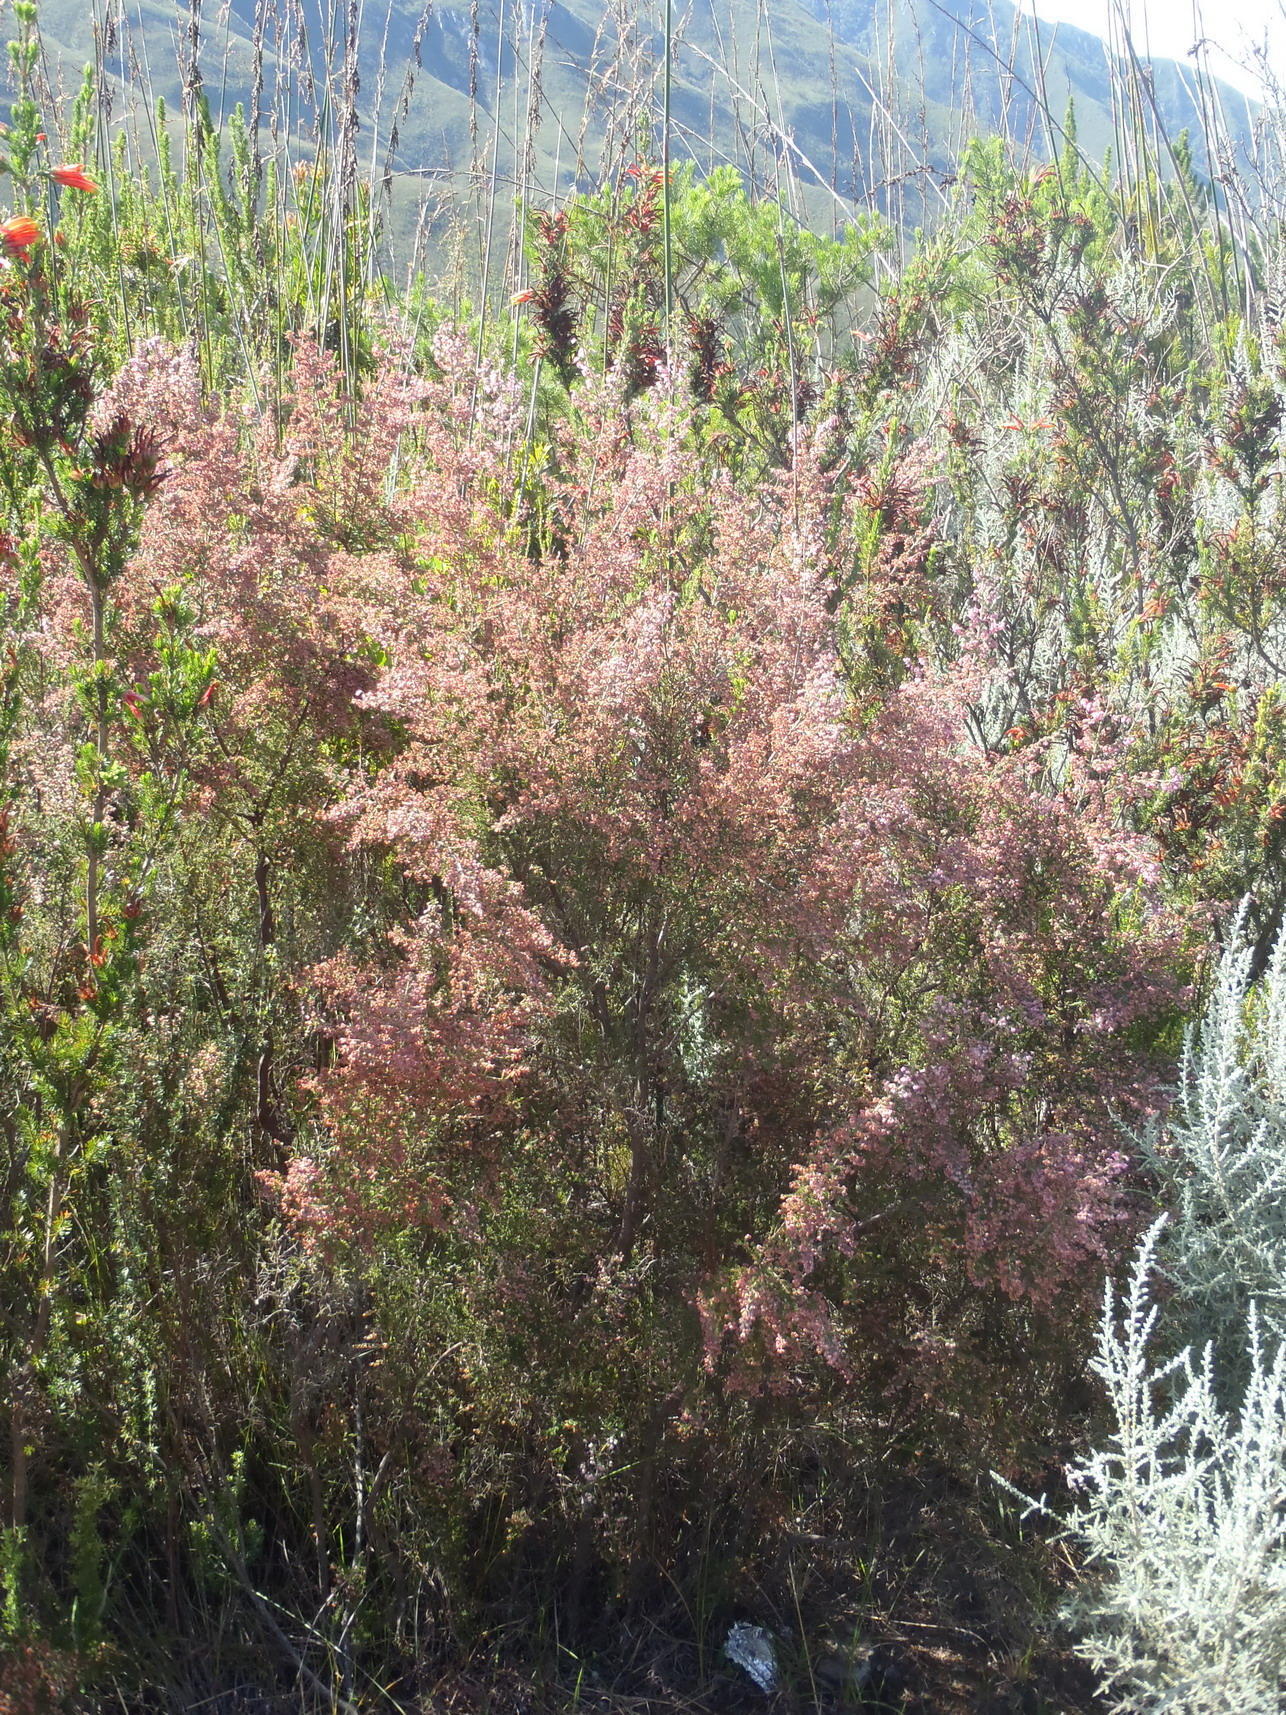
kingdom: Plantae
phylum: Tracheophyta
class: Magnoliopsida
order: Ericales
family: Ericaceae
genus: Erica
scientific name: Erica sparsa
